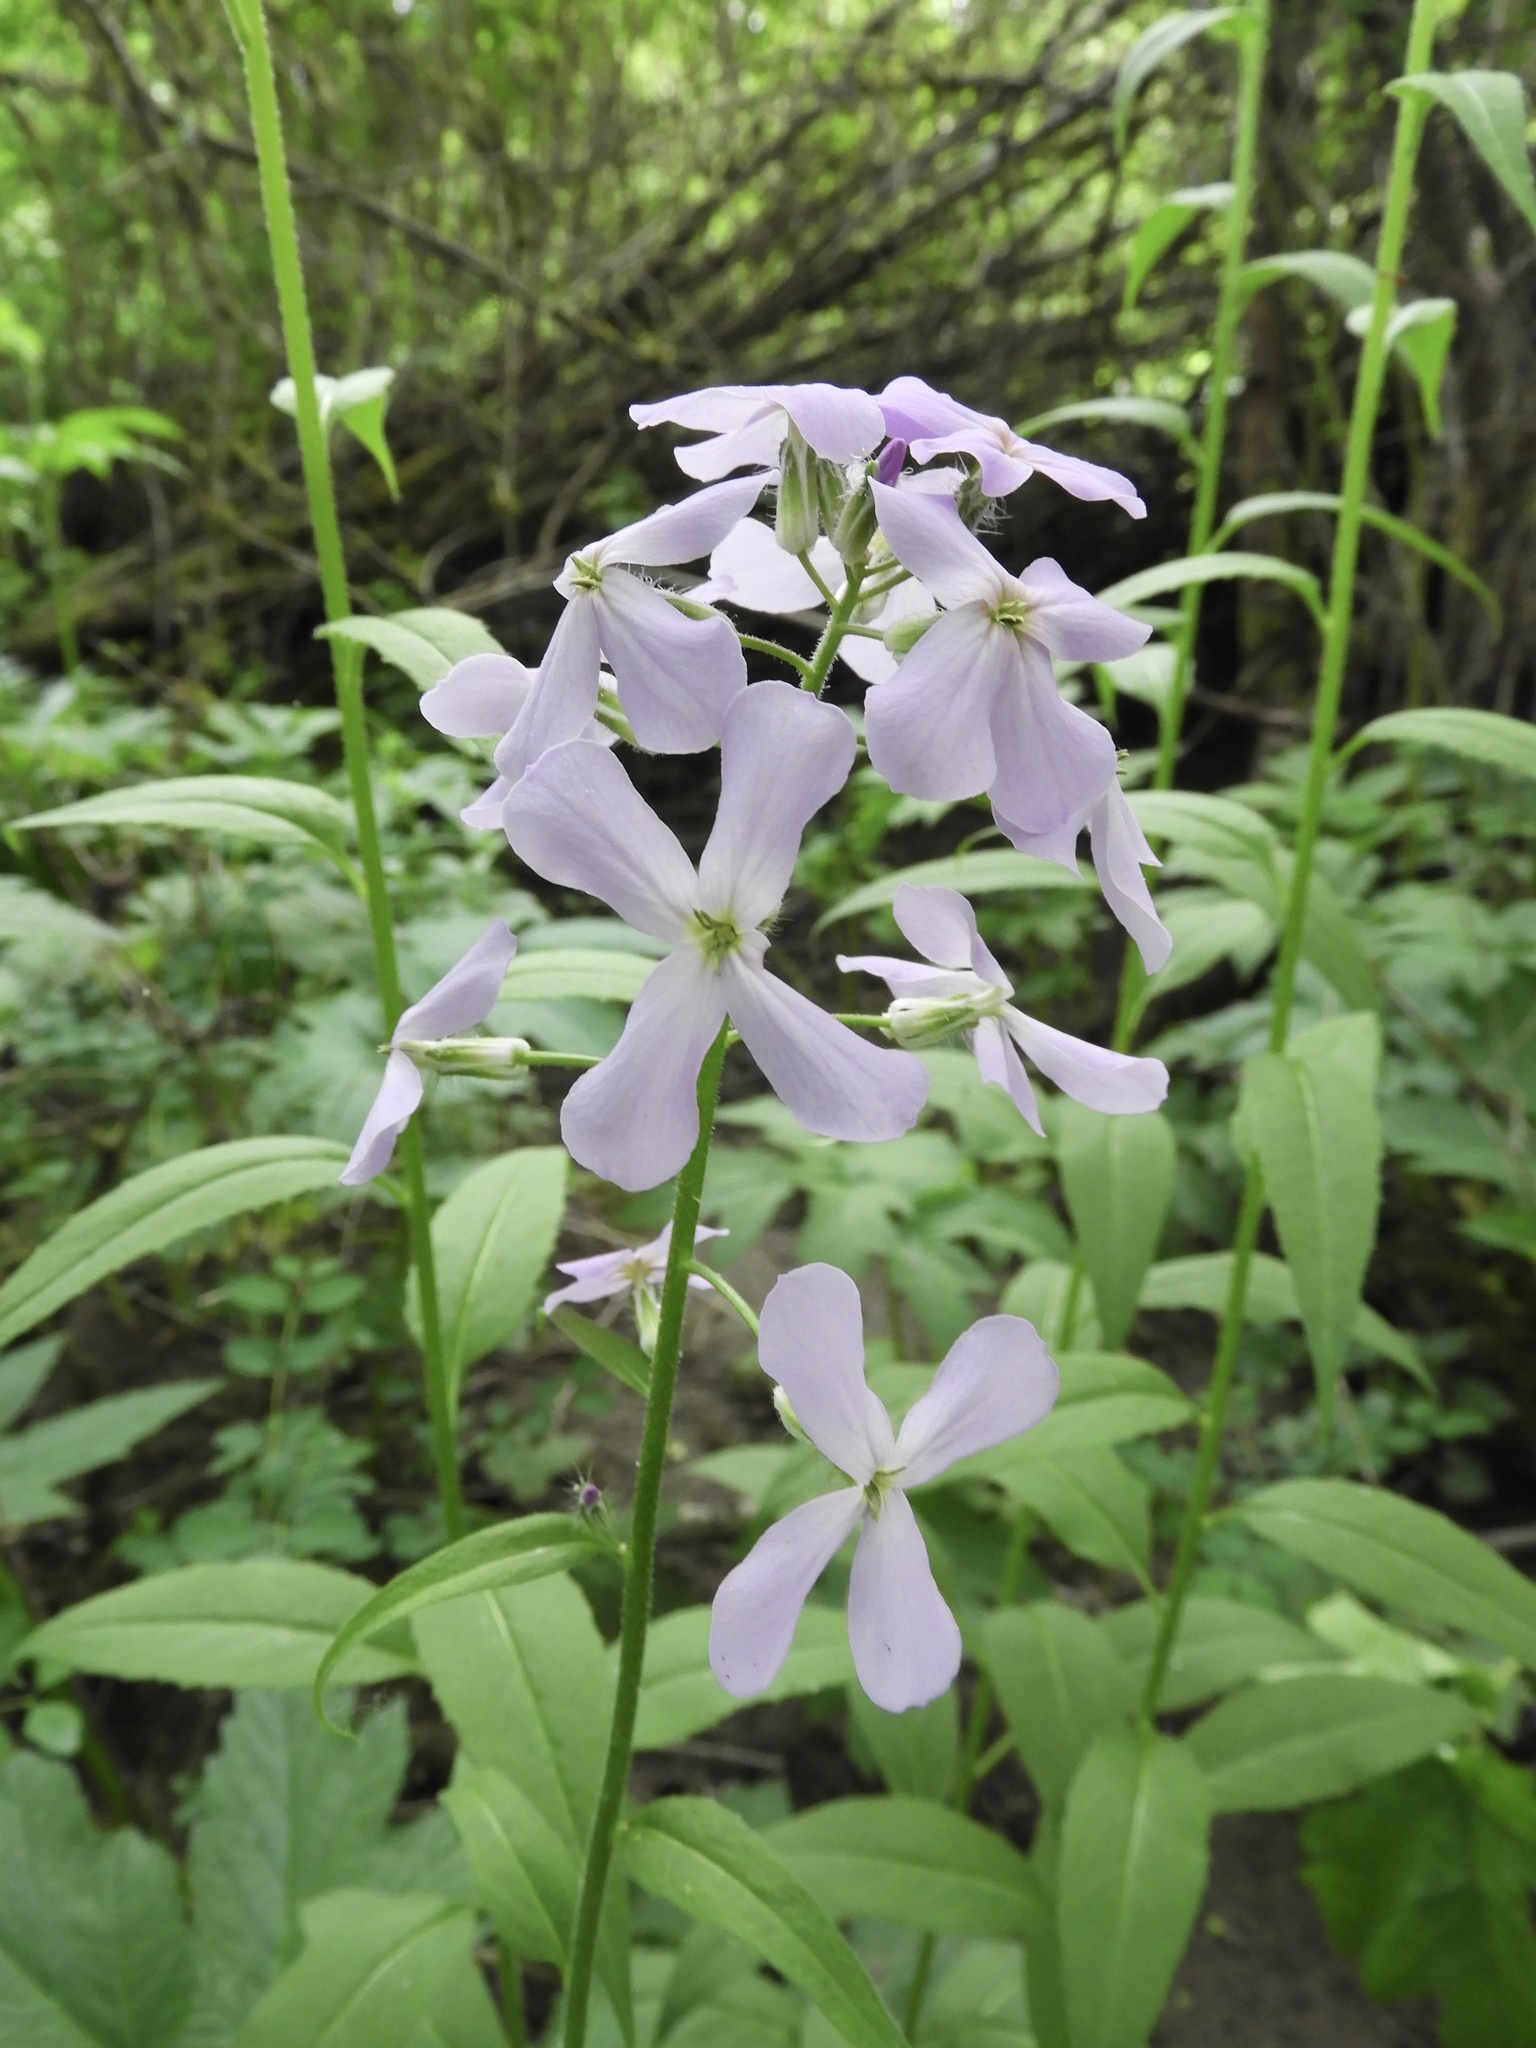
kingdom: Plantae
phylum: Tracheophyta
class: Magnoliopsida
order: Brassicales
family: Brassicaceae
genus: Hesperis
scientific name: Hesperis matronalis
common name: Dame's-violet
